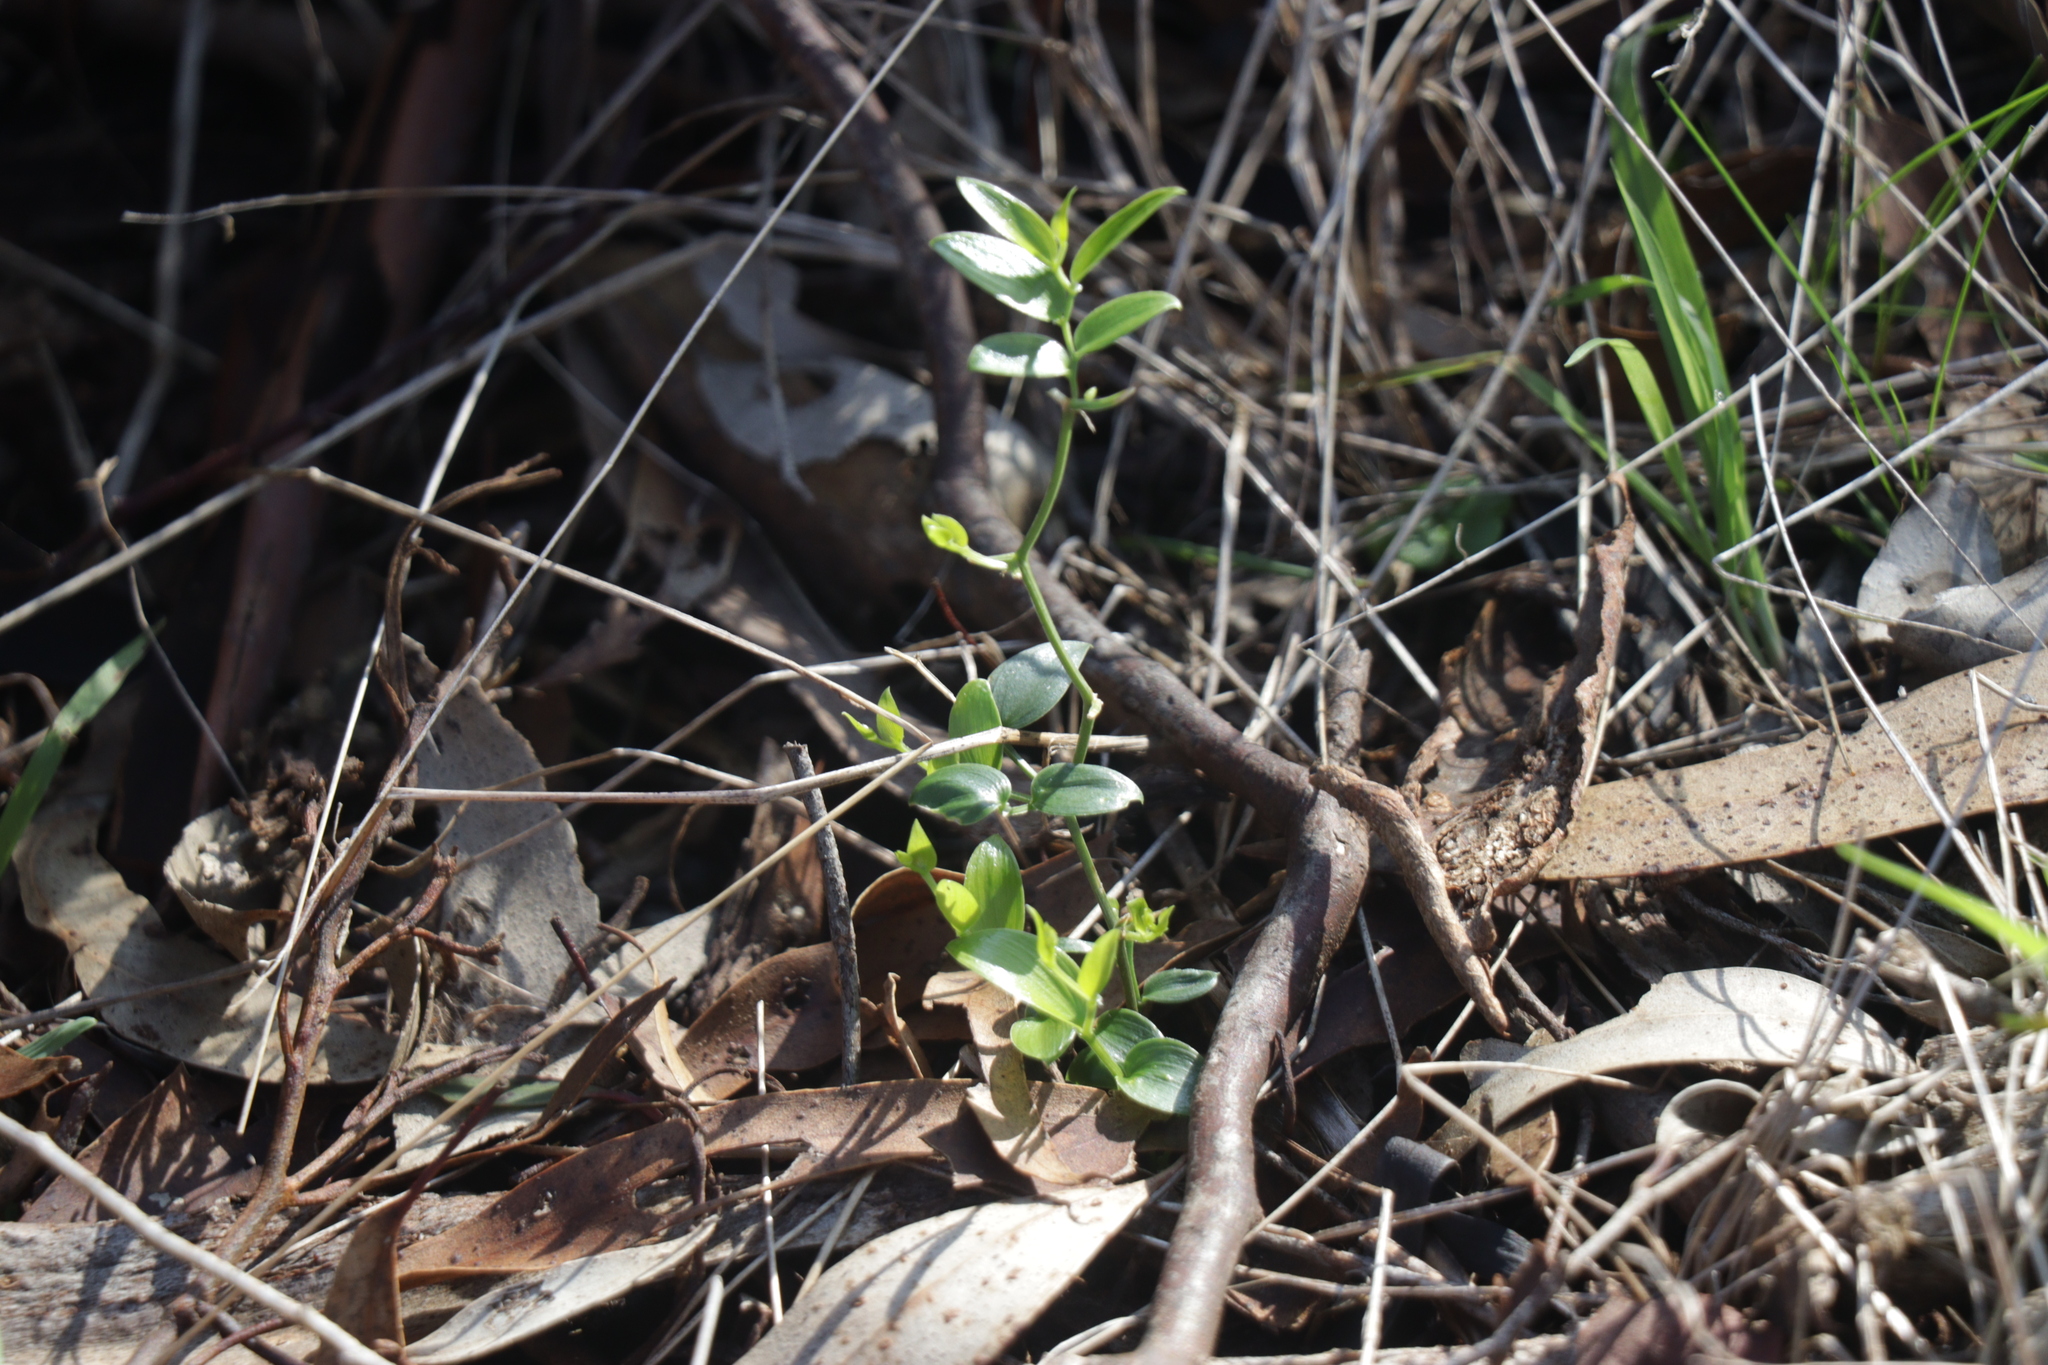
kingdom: Plantae
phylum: Tracheophyta
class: Liliopsida
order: Asparagales
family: Asparagaceae
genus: Asparagus
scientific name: Asparagus asparagoides
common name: African asparagus fern
